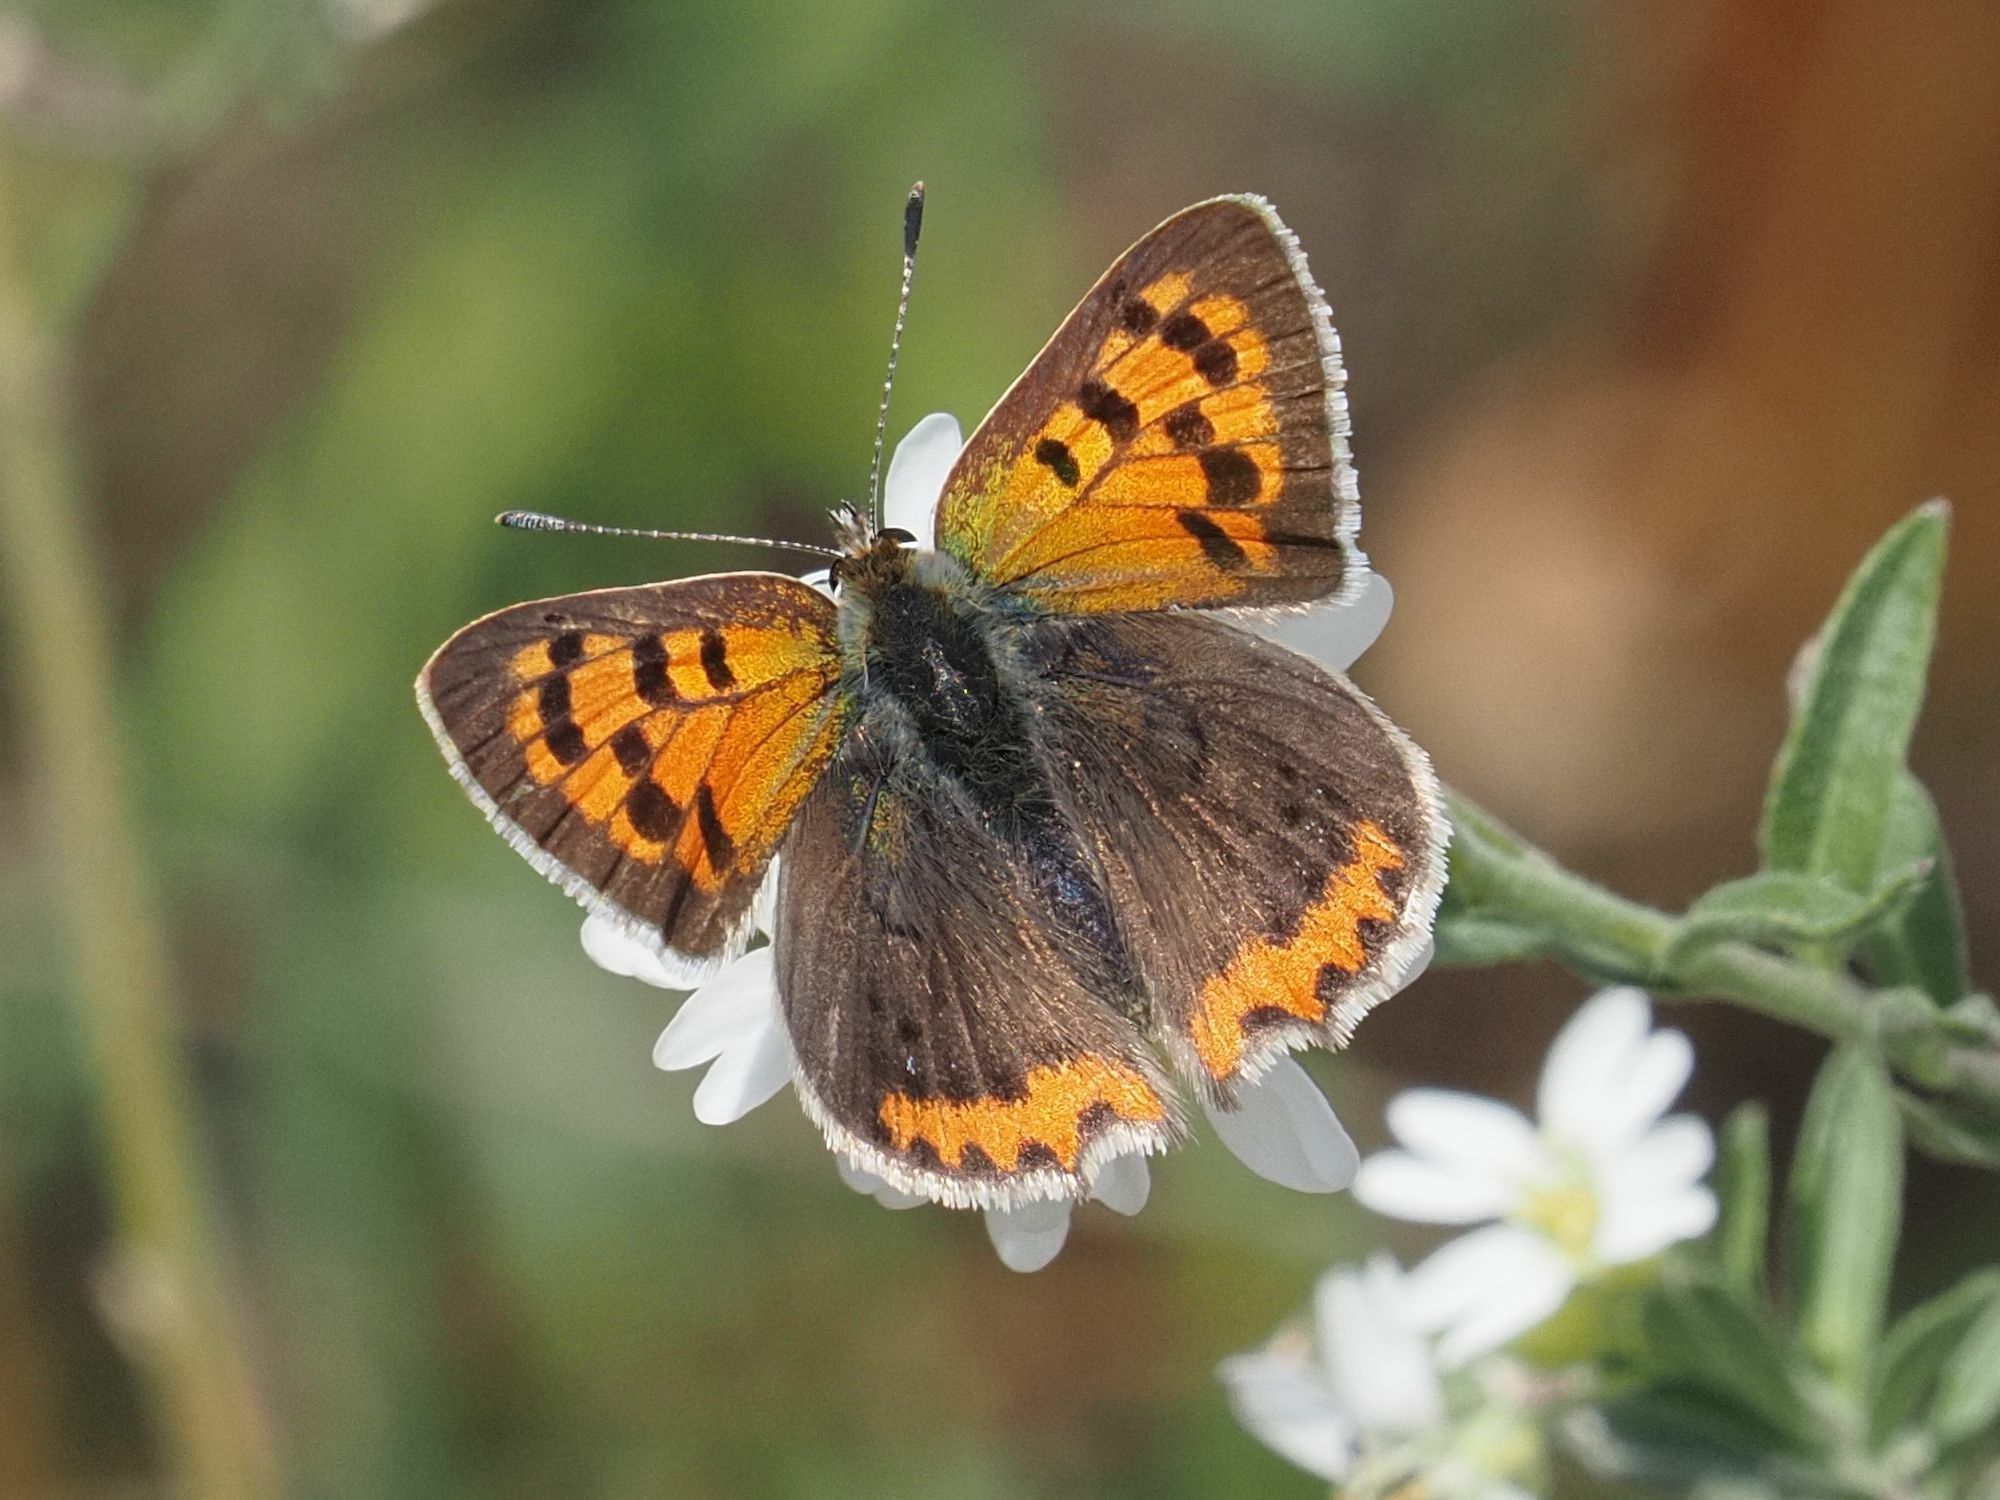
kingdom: Animalia
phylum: Arthropoda
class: Insecta
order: Lepidoptera
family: Lycaenidae
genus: Lycaena
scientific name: Lycaena phlaeas
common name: Small copper
